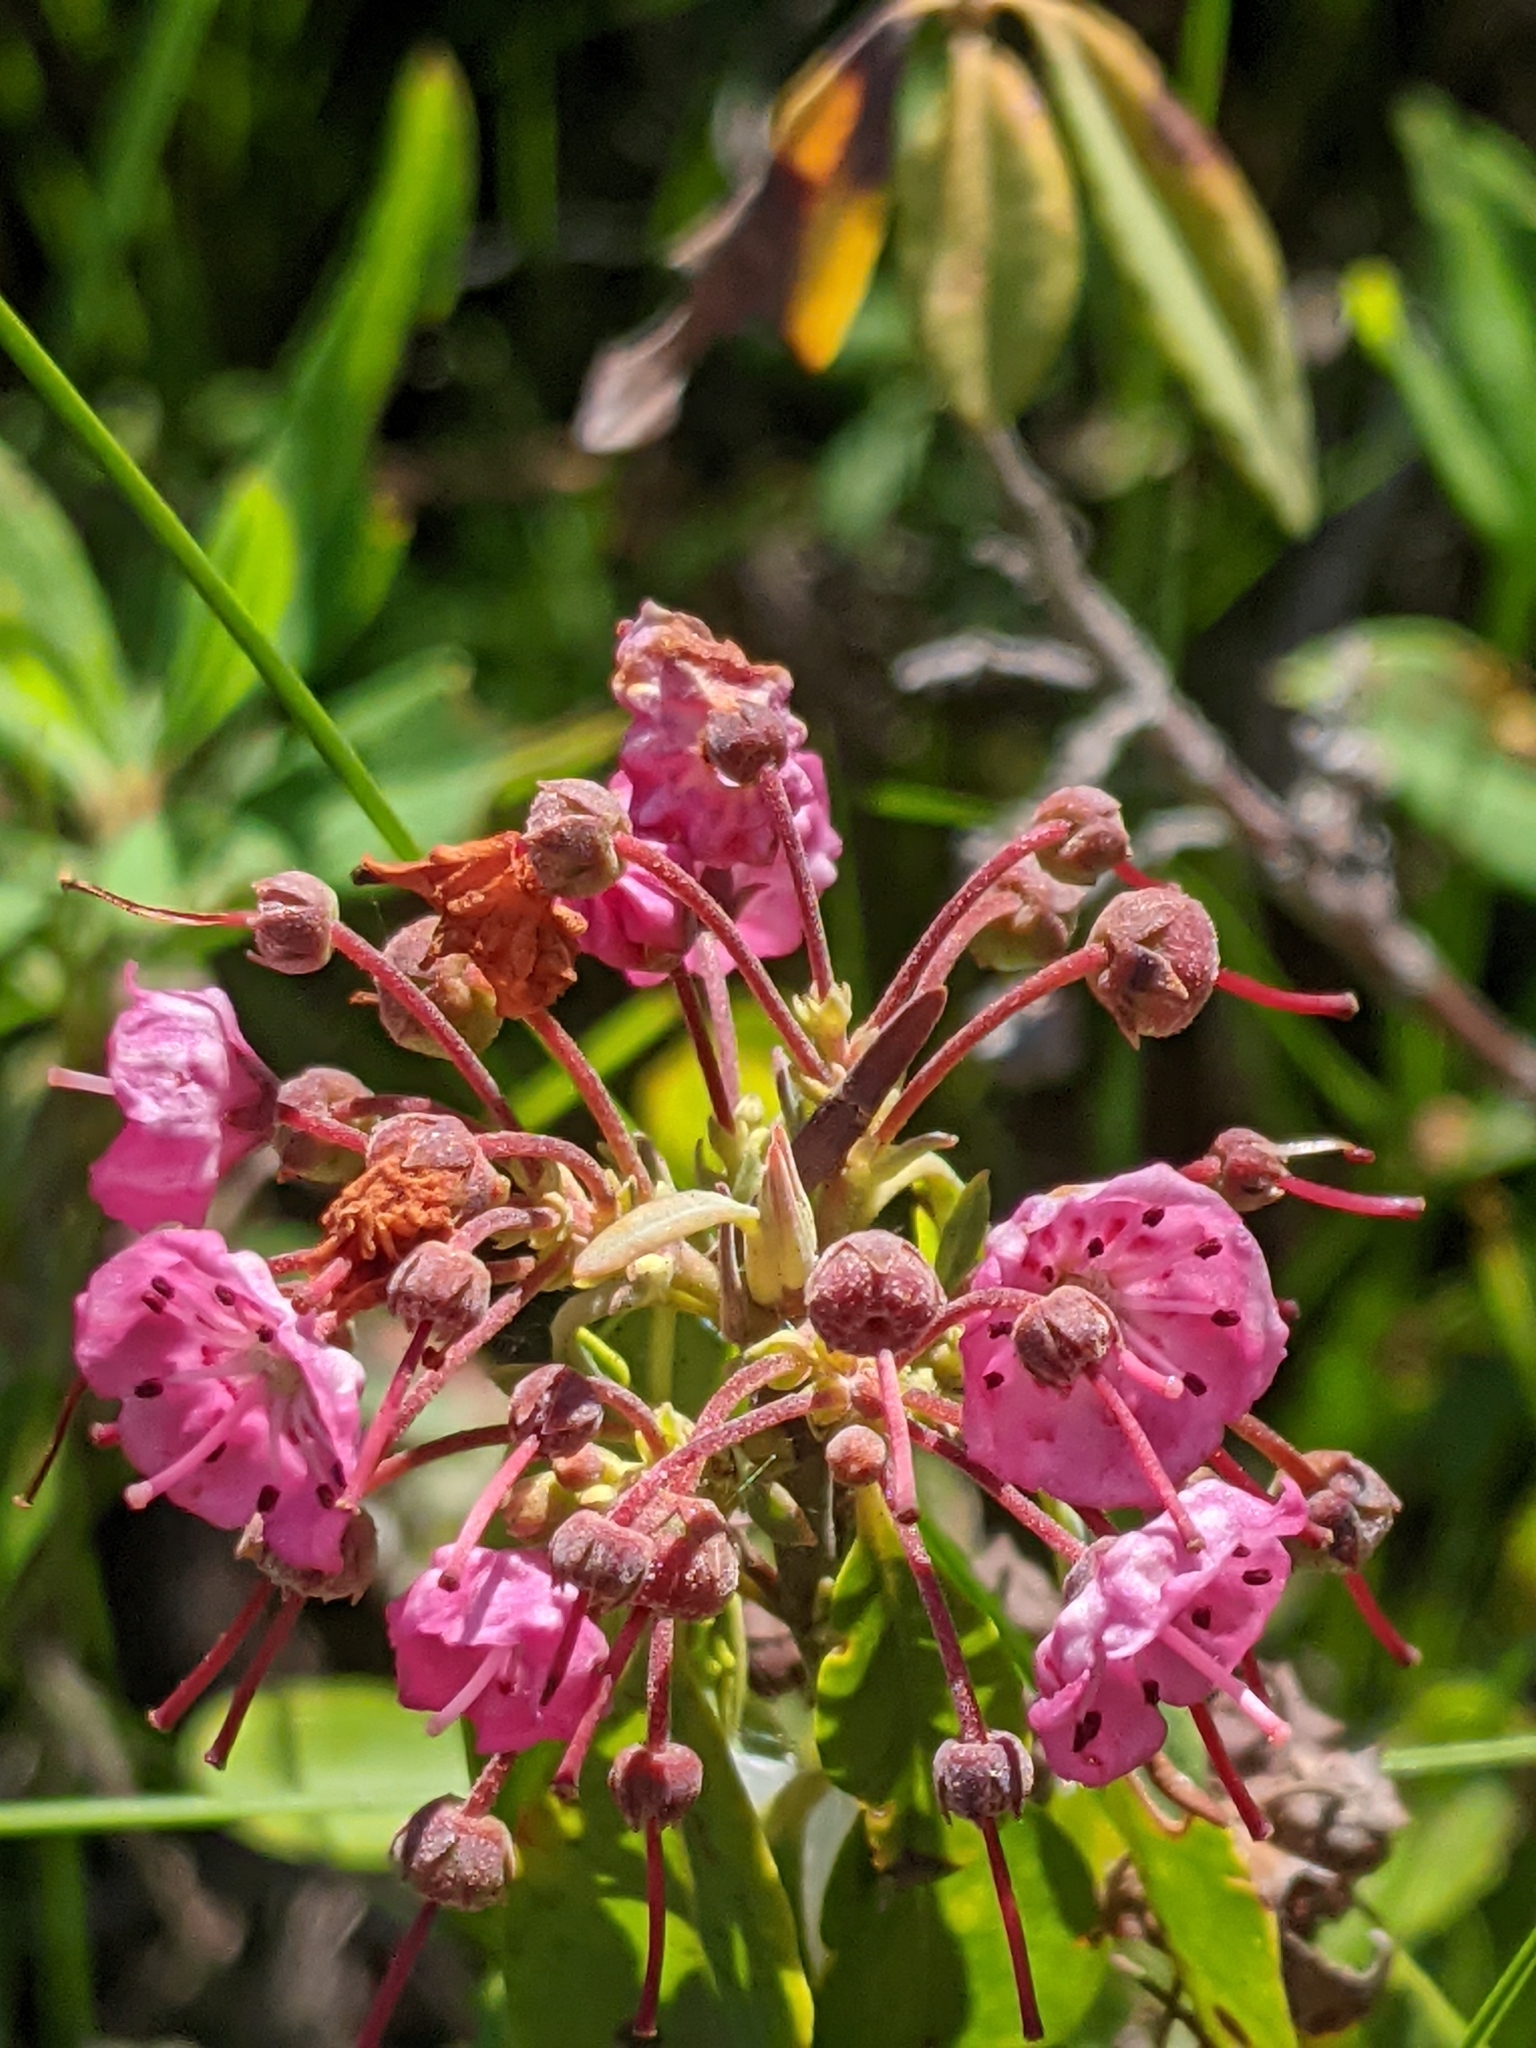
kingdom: Plantae
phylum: Tracheophyta
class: Magnoliopsida
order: Ericales
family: Ericaceae
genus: Kalmia
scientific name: Kalmia angustifolia
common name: Sheep-laurel
